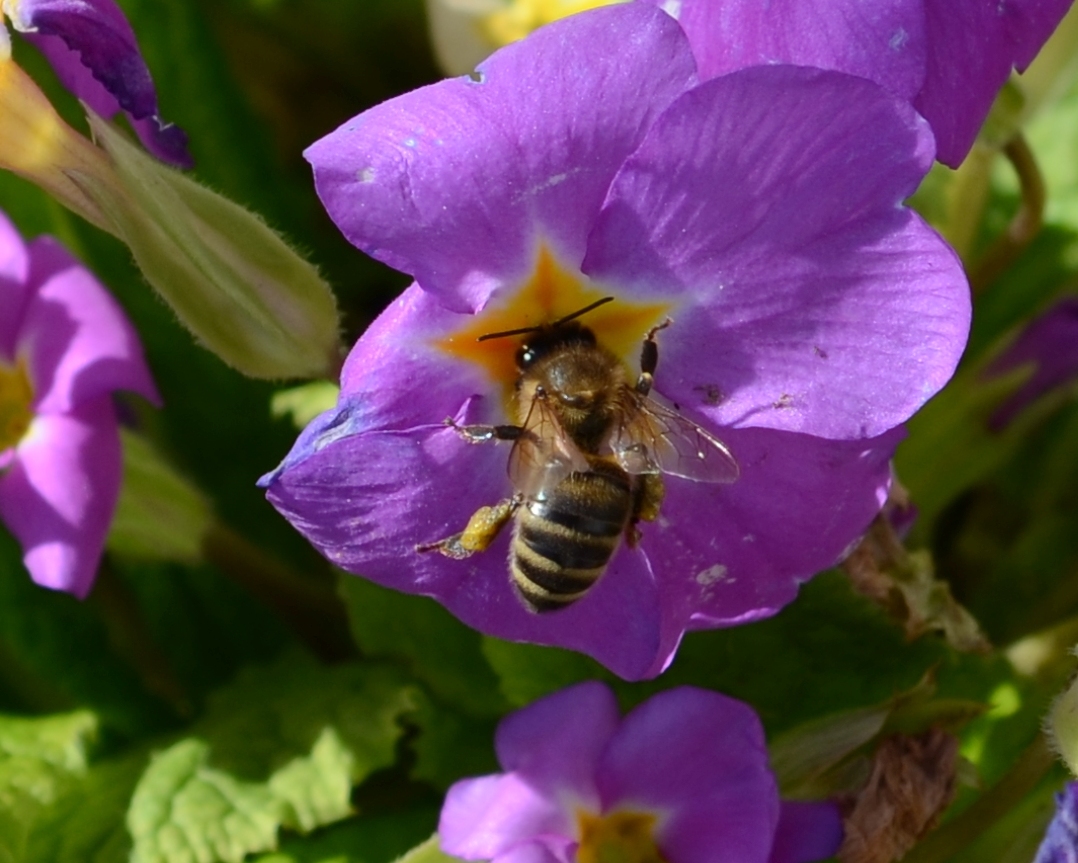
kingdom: Animalia
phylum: Arthropoda
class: Insecta
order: Hymenoptera
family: Apidae
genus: Apis
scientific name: Apis mellifera
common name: Honey bee
